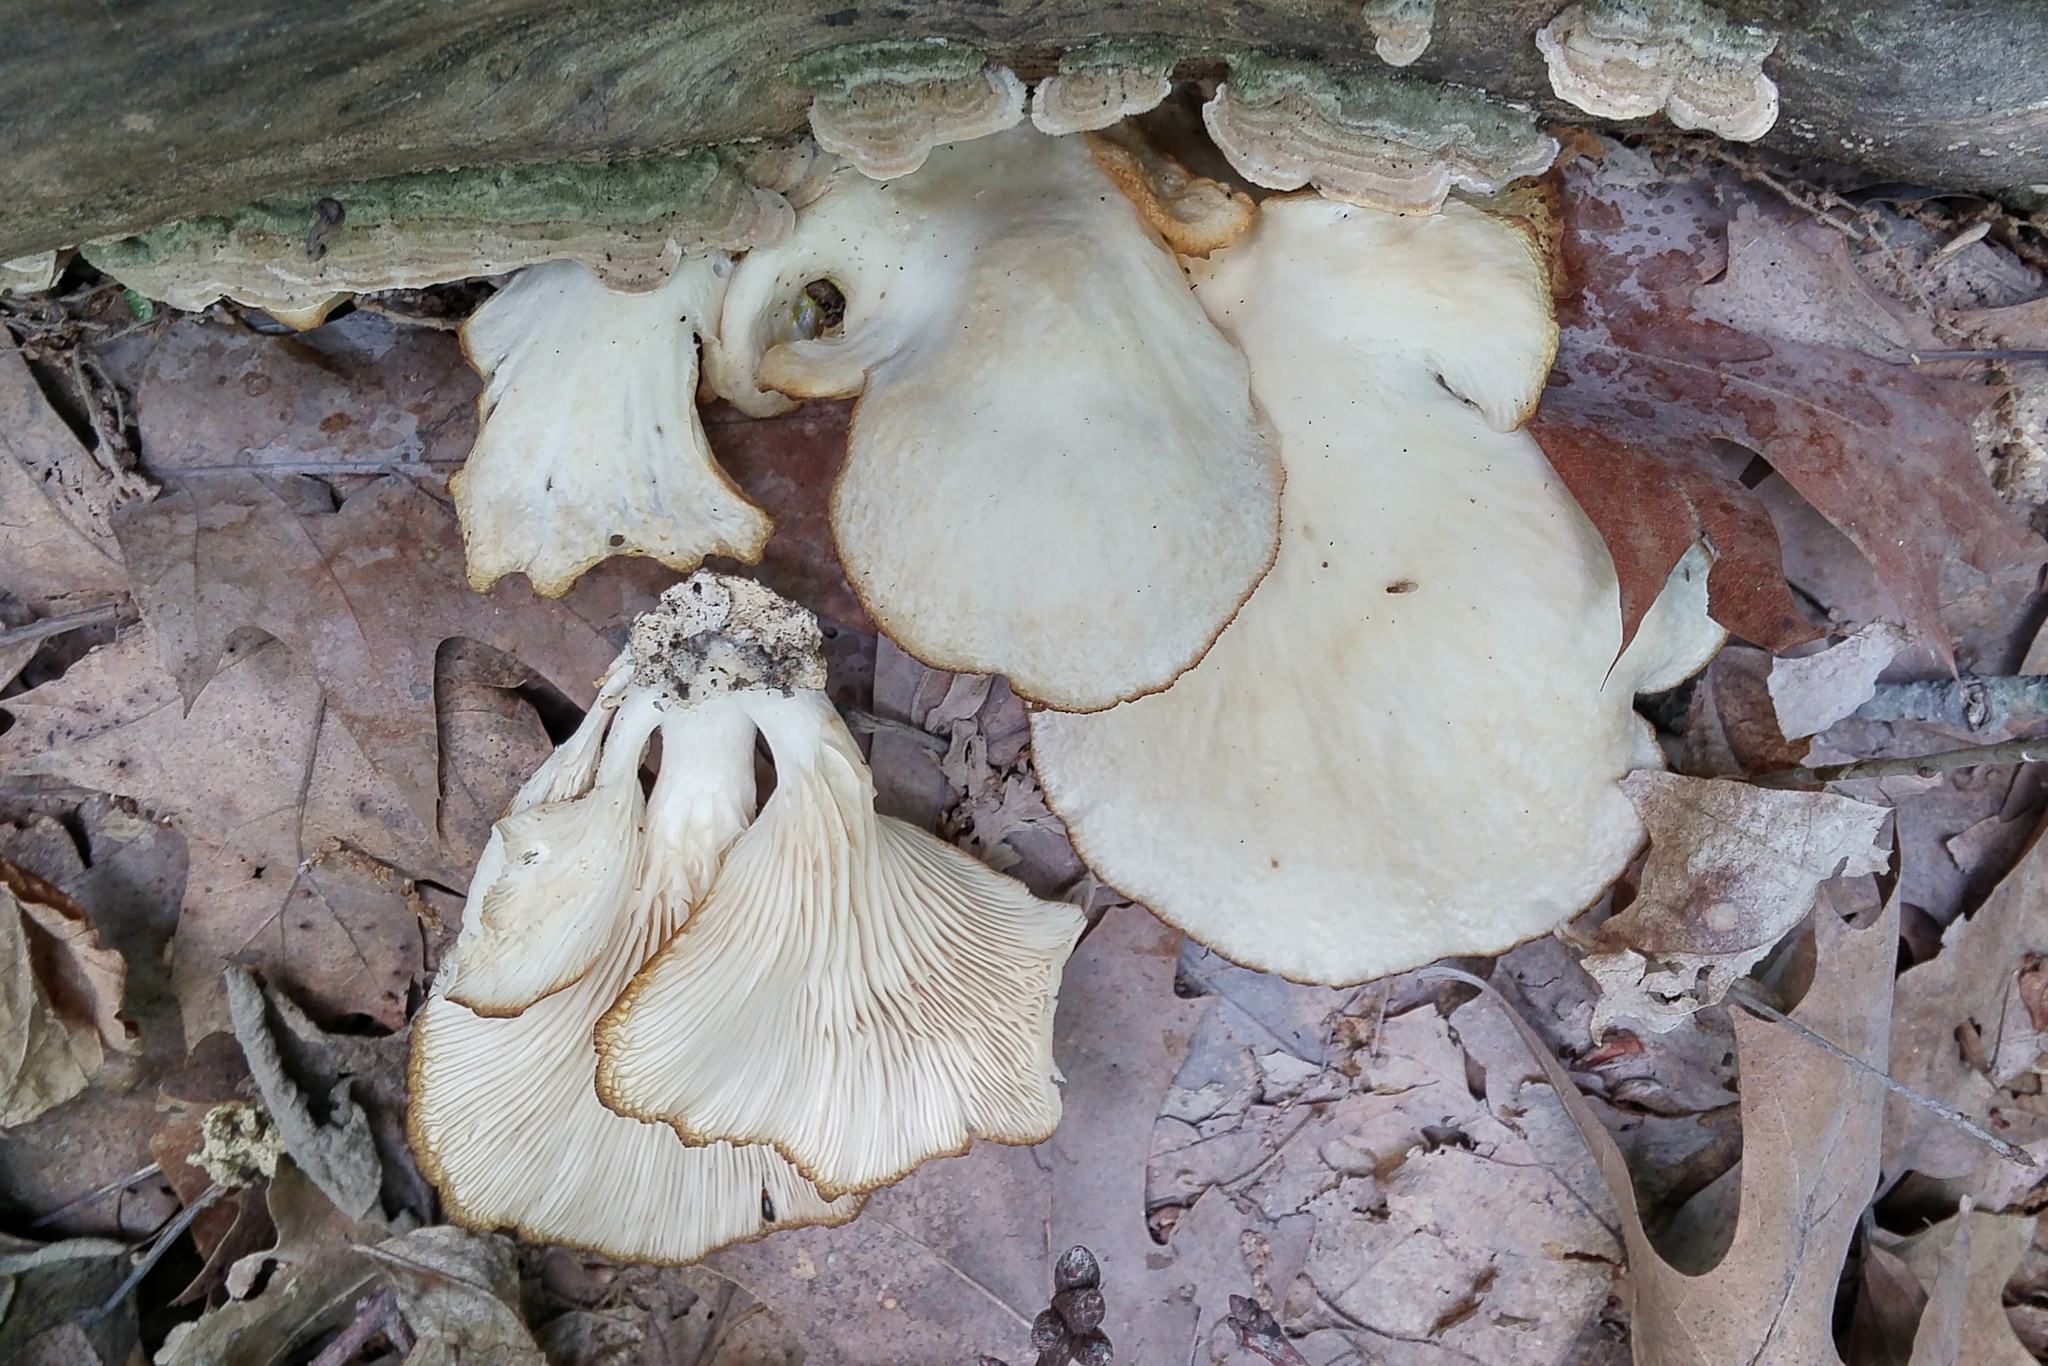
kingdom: Fungi
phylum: Basidiomycota
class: Agaricomycetes
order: Agaricales
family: Pleurotaceae
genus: Pleurotus
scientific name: Pleurotus pulmonarius
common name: Pale oyster
